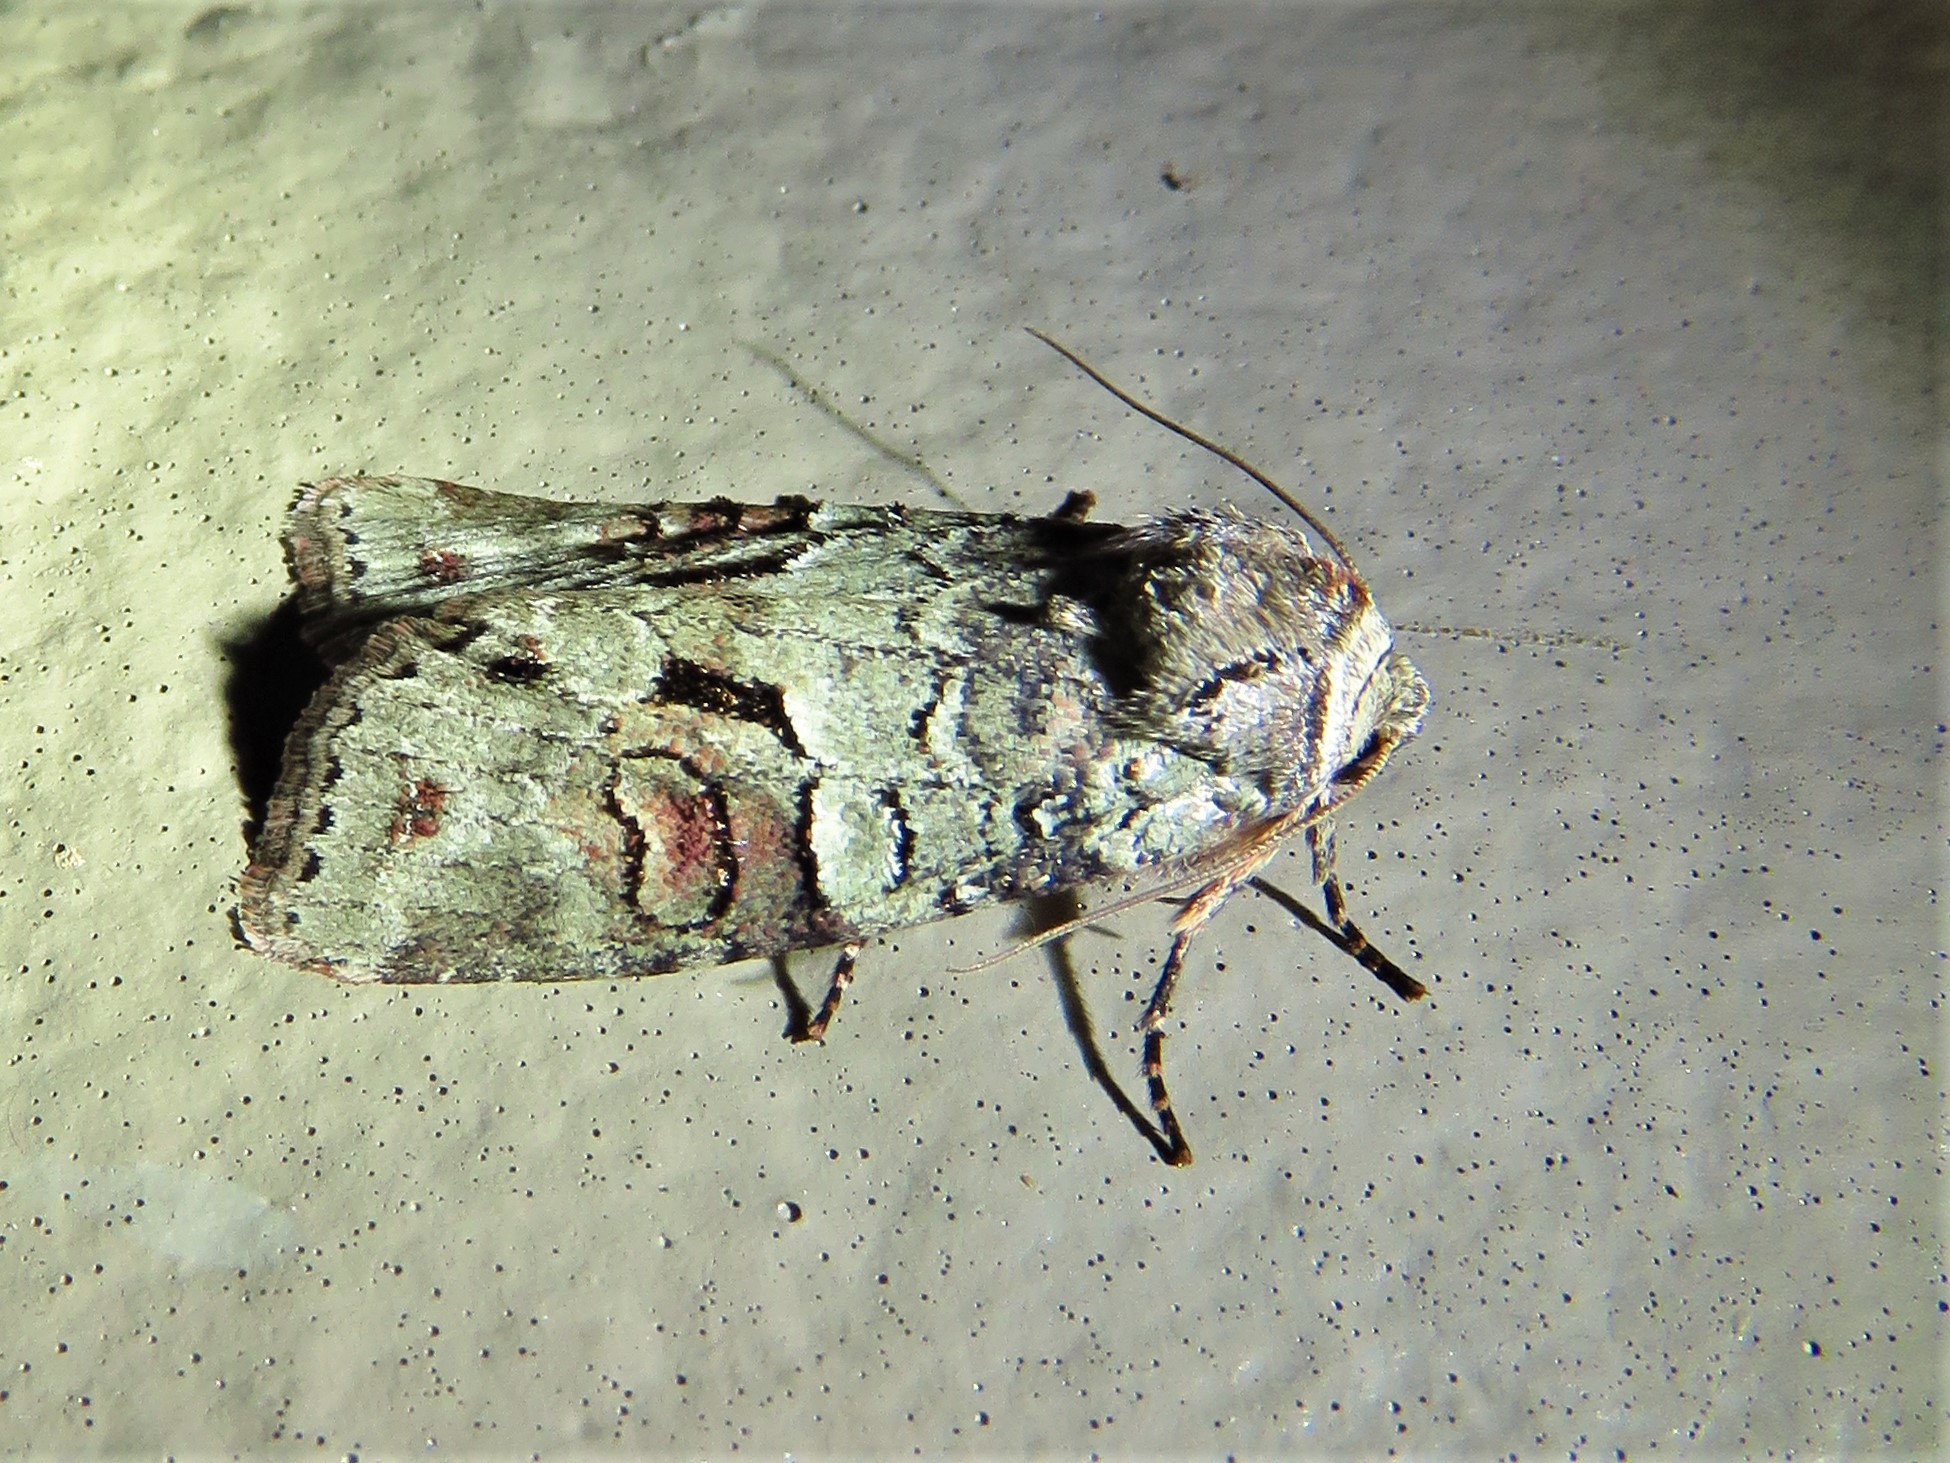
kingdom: Animalia
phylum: Arthropoda
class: Insecta
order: Lepidoptera
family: Noctuidae
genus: Egira
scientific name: Egira alternans
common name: Alternate woodling
